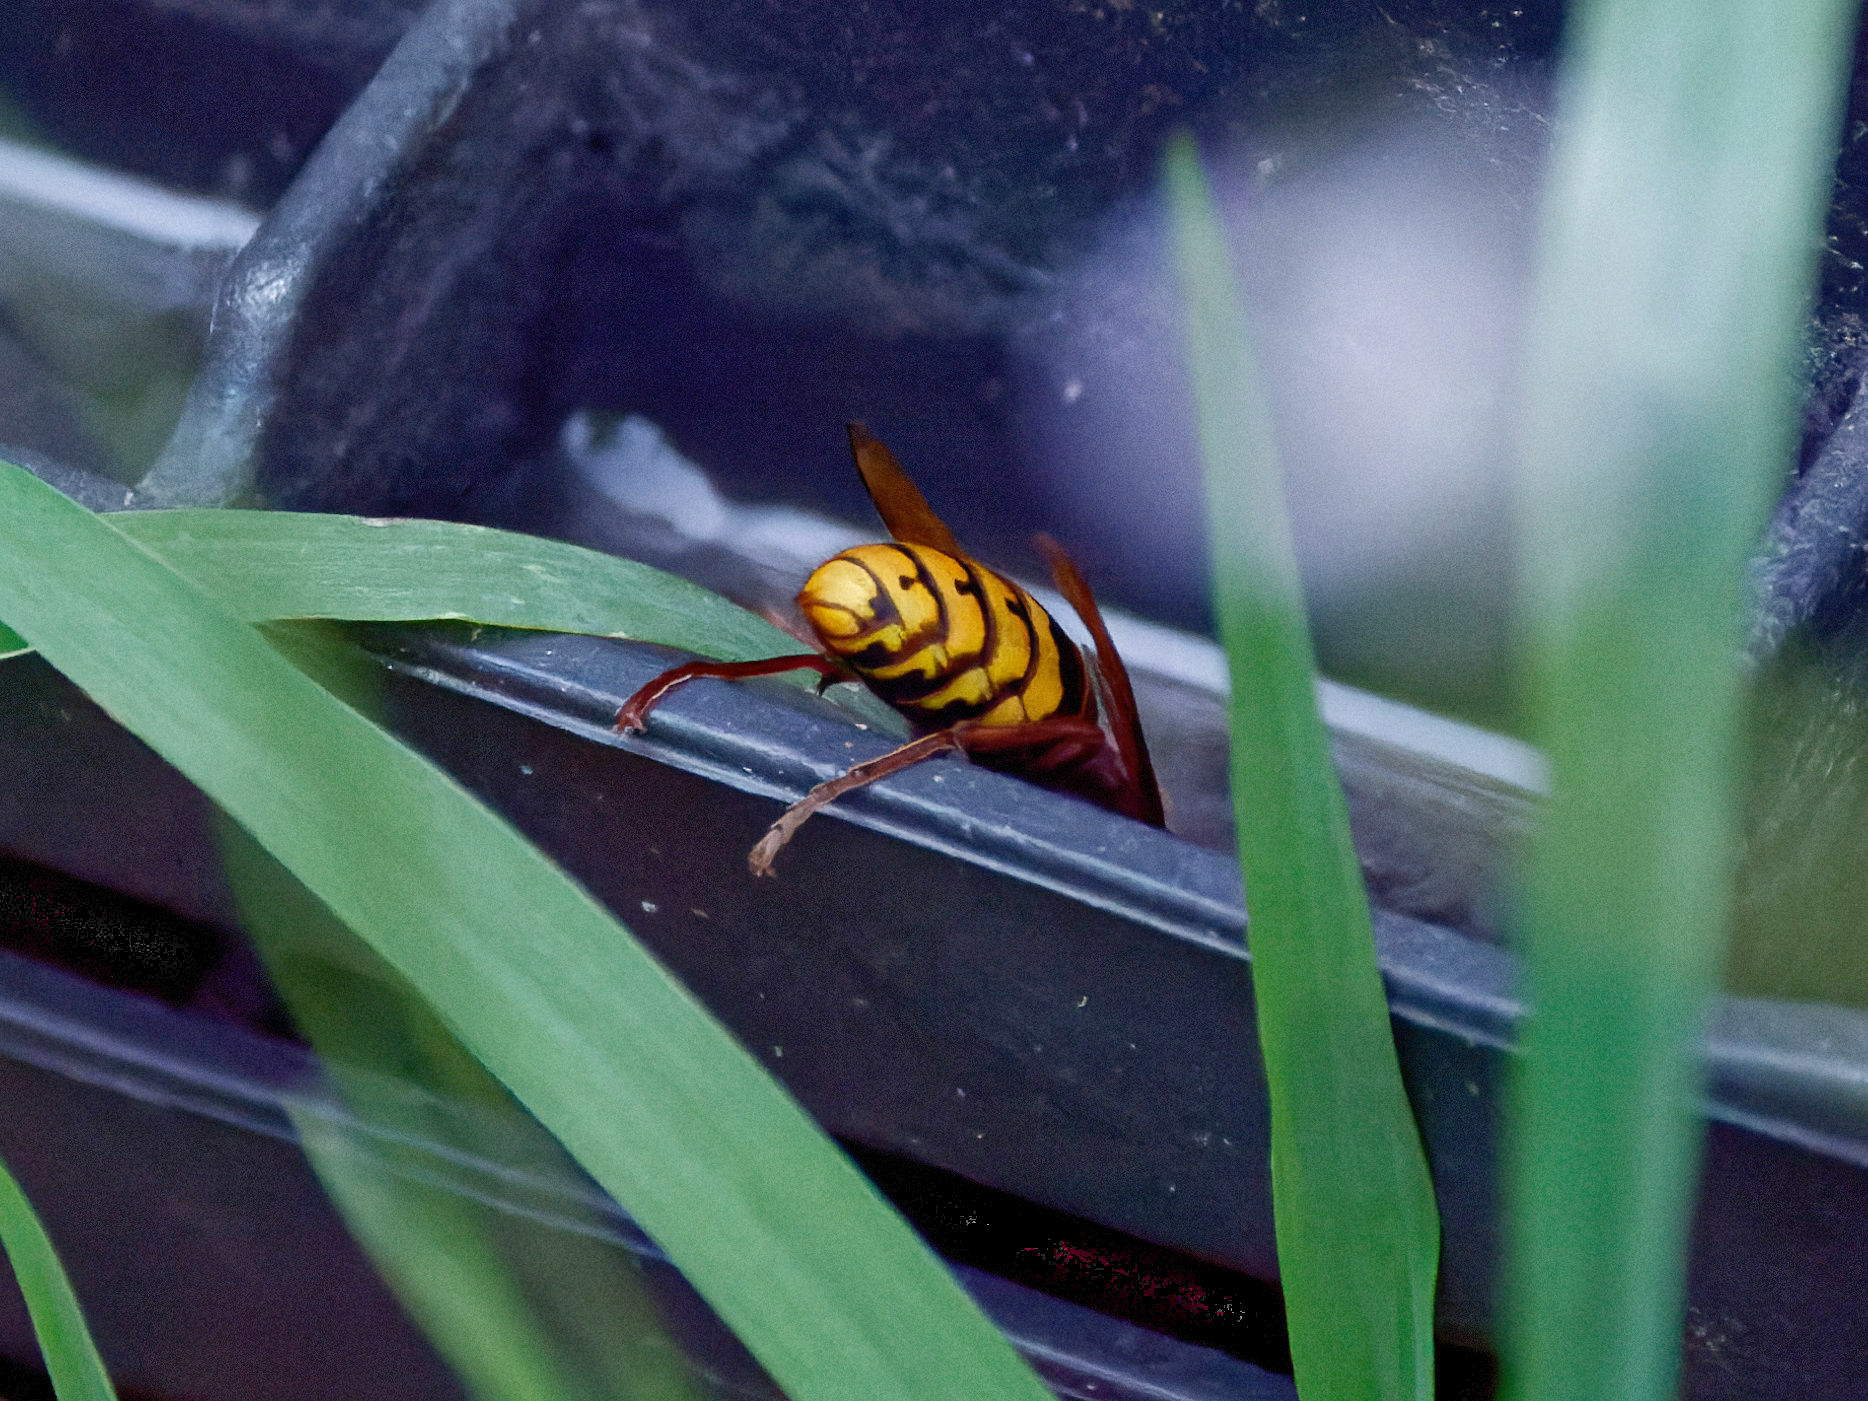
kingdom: Animalia
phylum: Arthropoda
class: Insecta
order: Hymenoptera
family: Vespidae
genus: Vespa
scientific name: Vespa crabro
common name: Hornet
